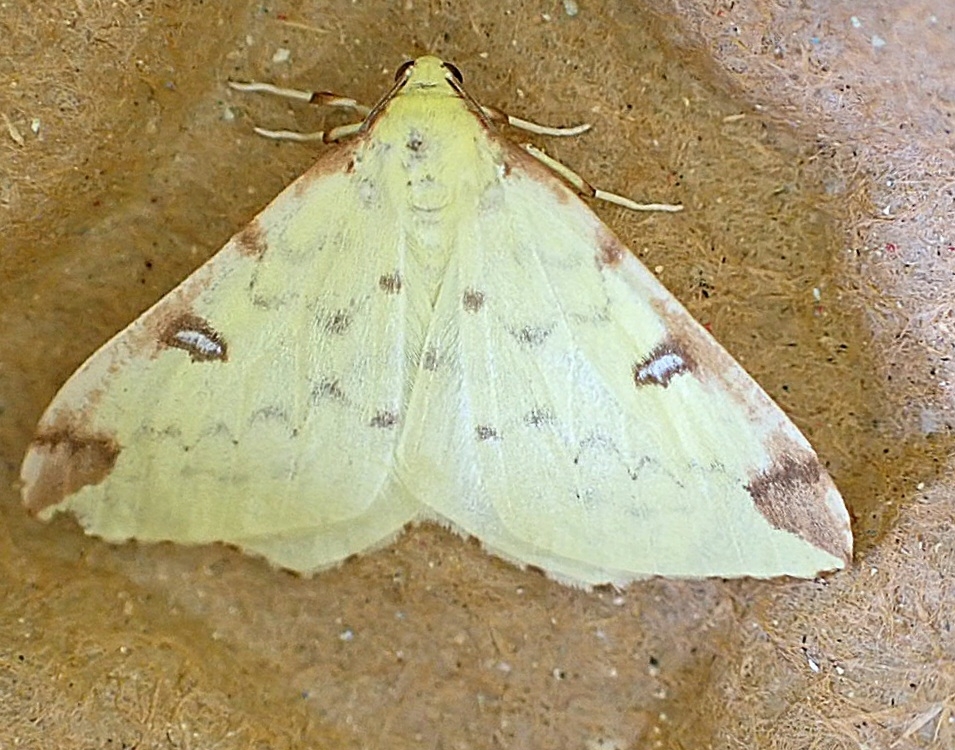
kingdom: Animalia
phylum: Arthropoda
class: Insecta
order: Lepidoptera
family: Geometridae
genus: Opisthograptis
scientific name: Opisthograptis luteolata
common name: Brimstone moth
